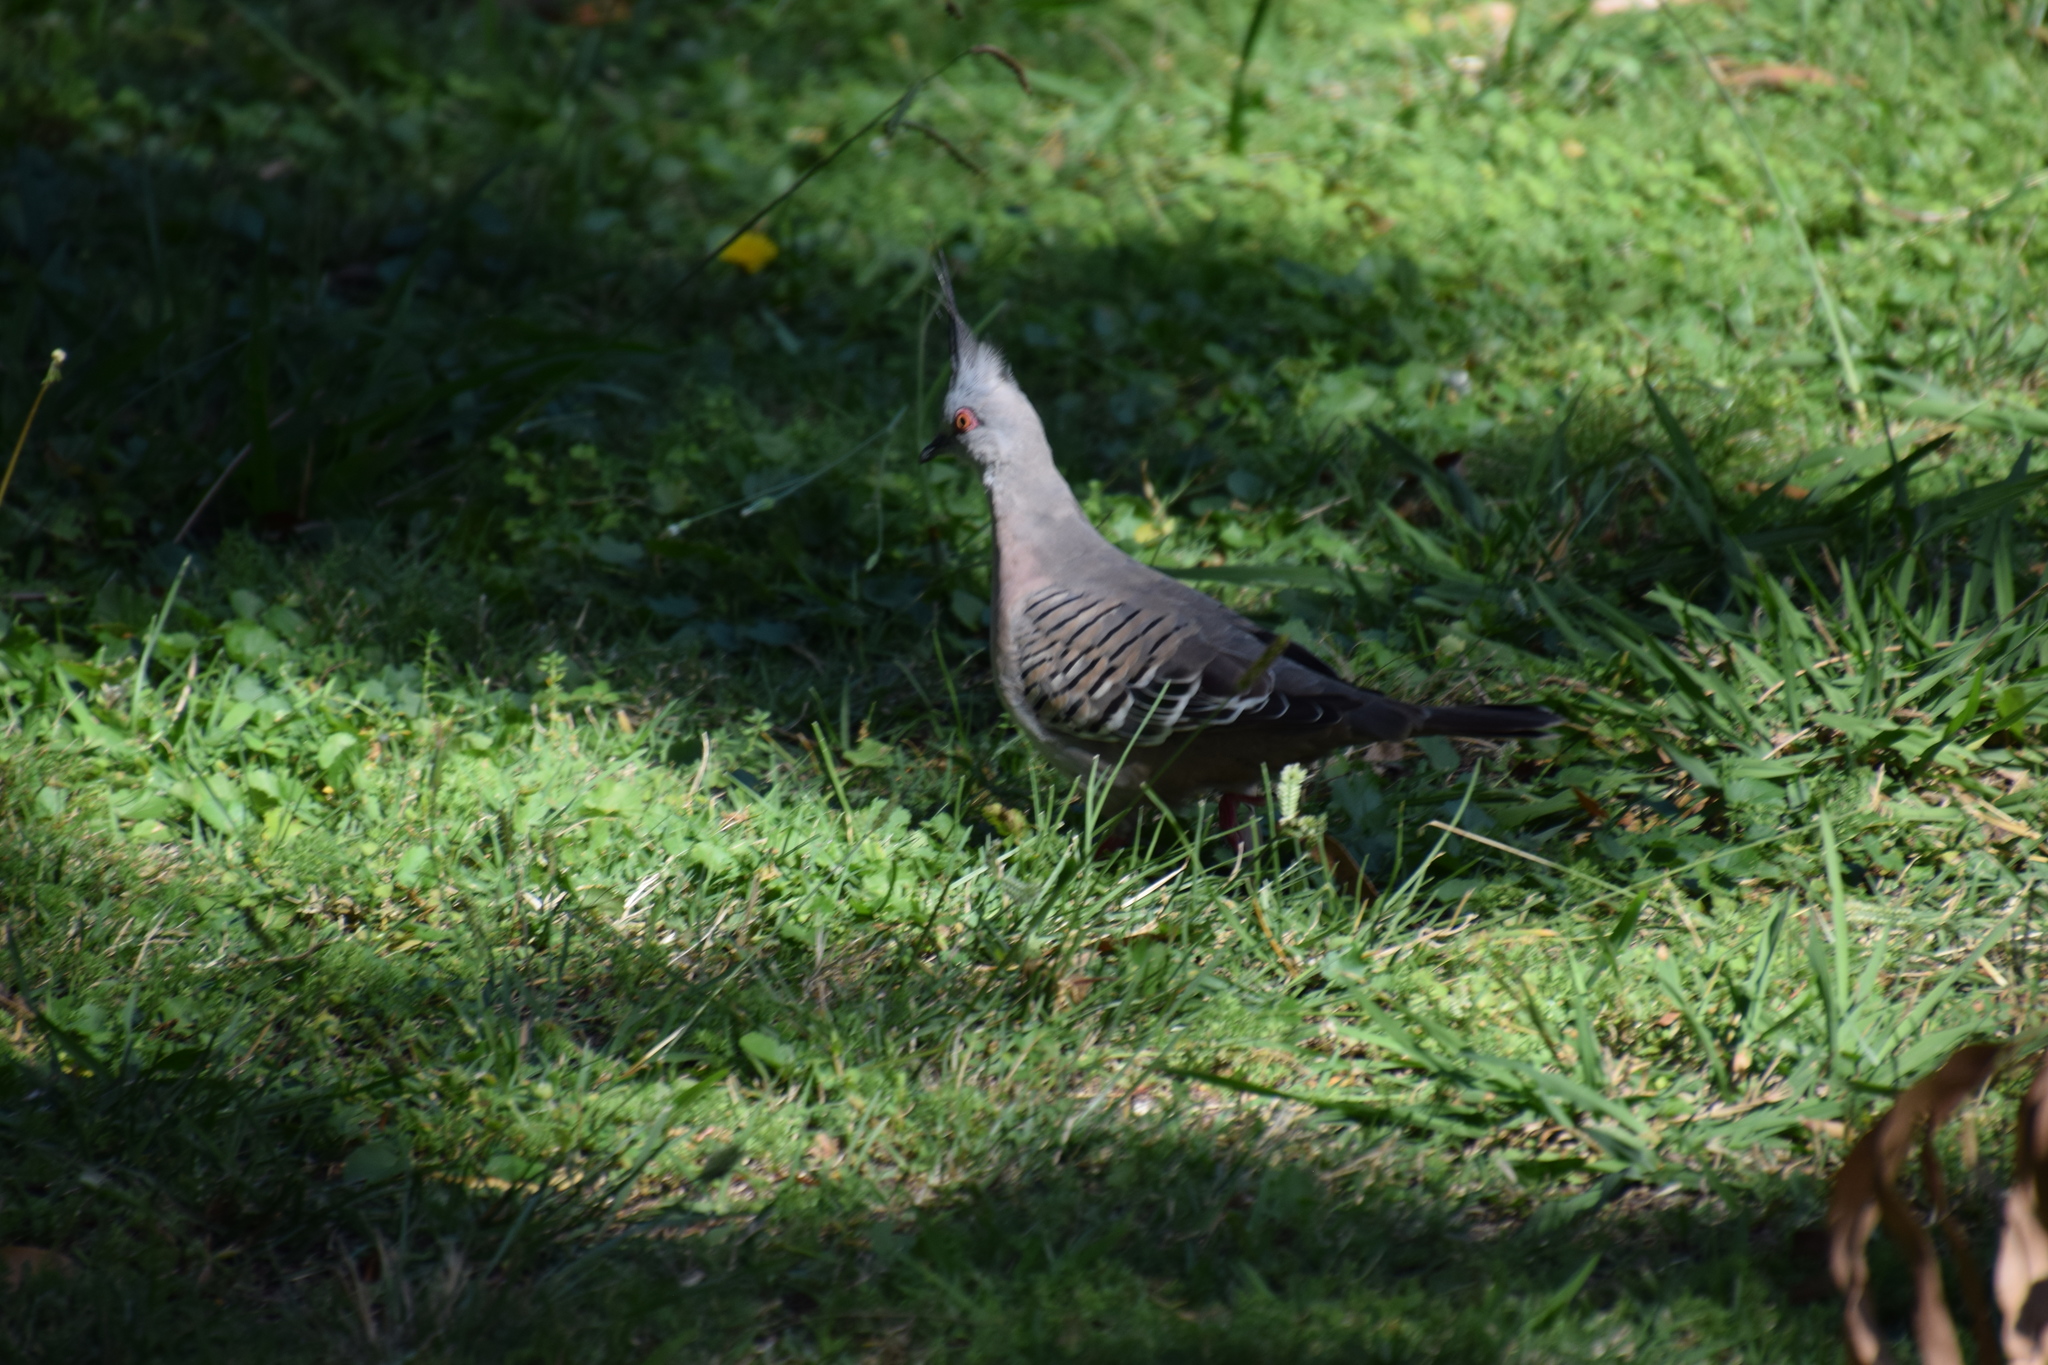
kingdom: Animalia
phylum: Chordata
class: Aves
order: Columbiformes
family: Columbidae
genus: Ocyphaps
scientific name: Ocyphaps lophotes
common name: Crested pigeon
